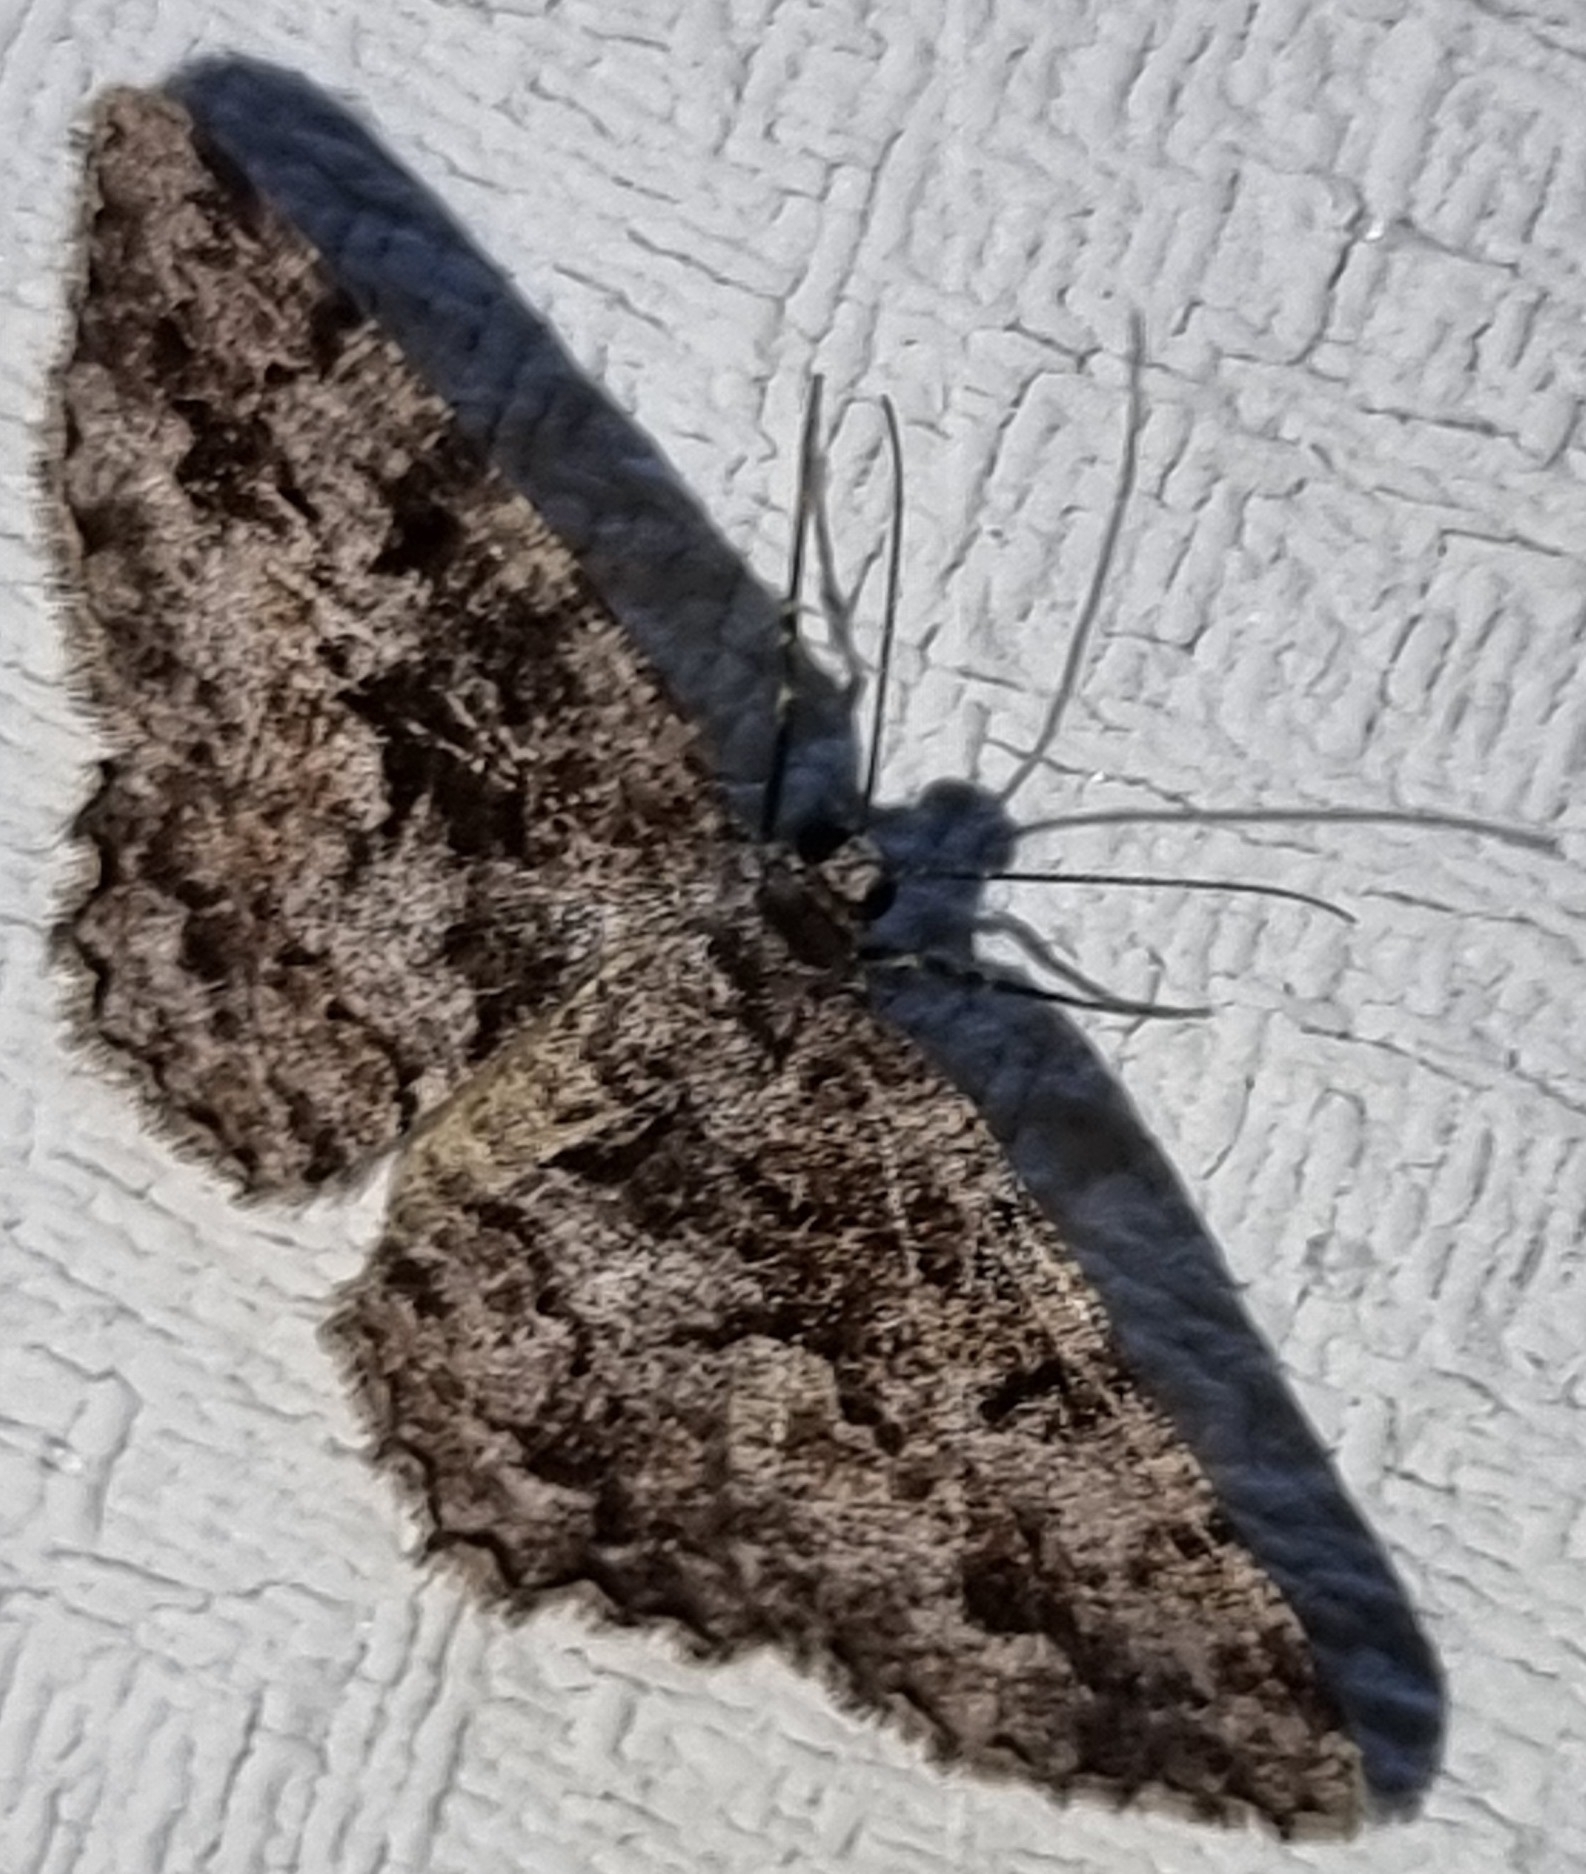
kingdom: Animalia
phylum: Arthropoda
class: Insecta
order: Lepidoptera
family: Geometridae
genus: Hypomecis
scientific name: Hypomecis externaria
